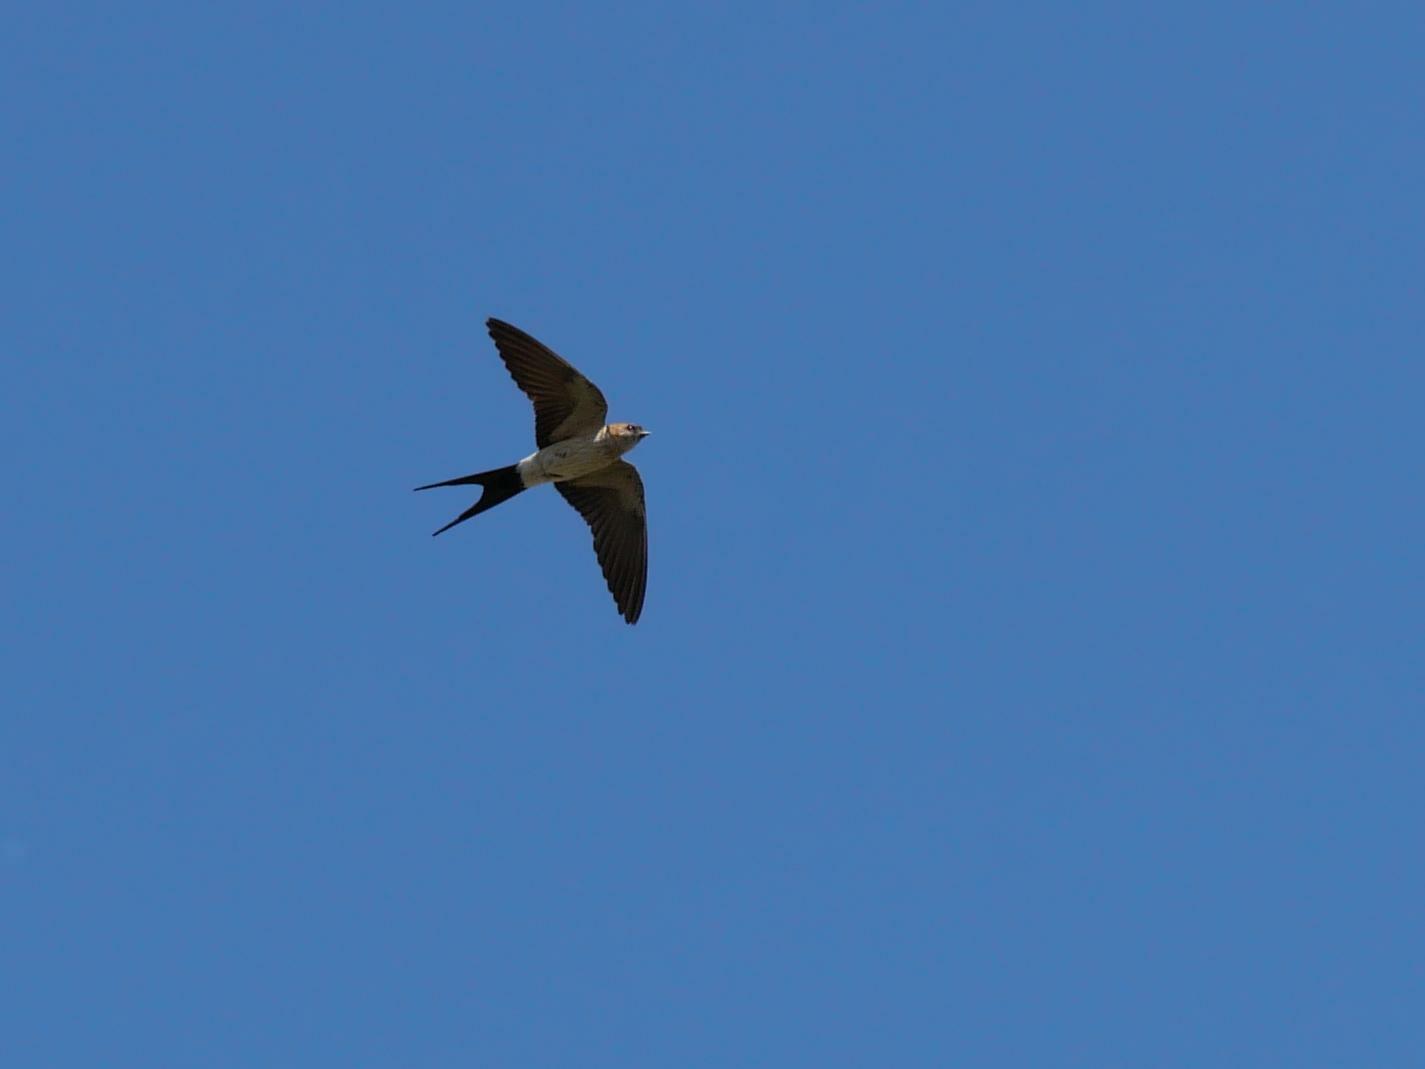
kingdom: Animalia
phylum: Chordata
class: Aves
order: Passeriformes
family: Hirundinidae
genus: Cecropis
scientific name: Cecropis daurica
